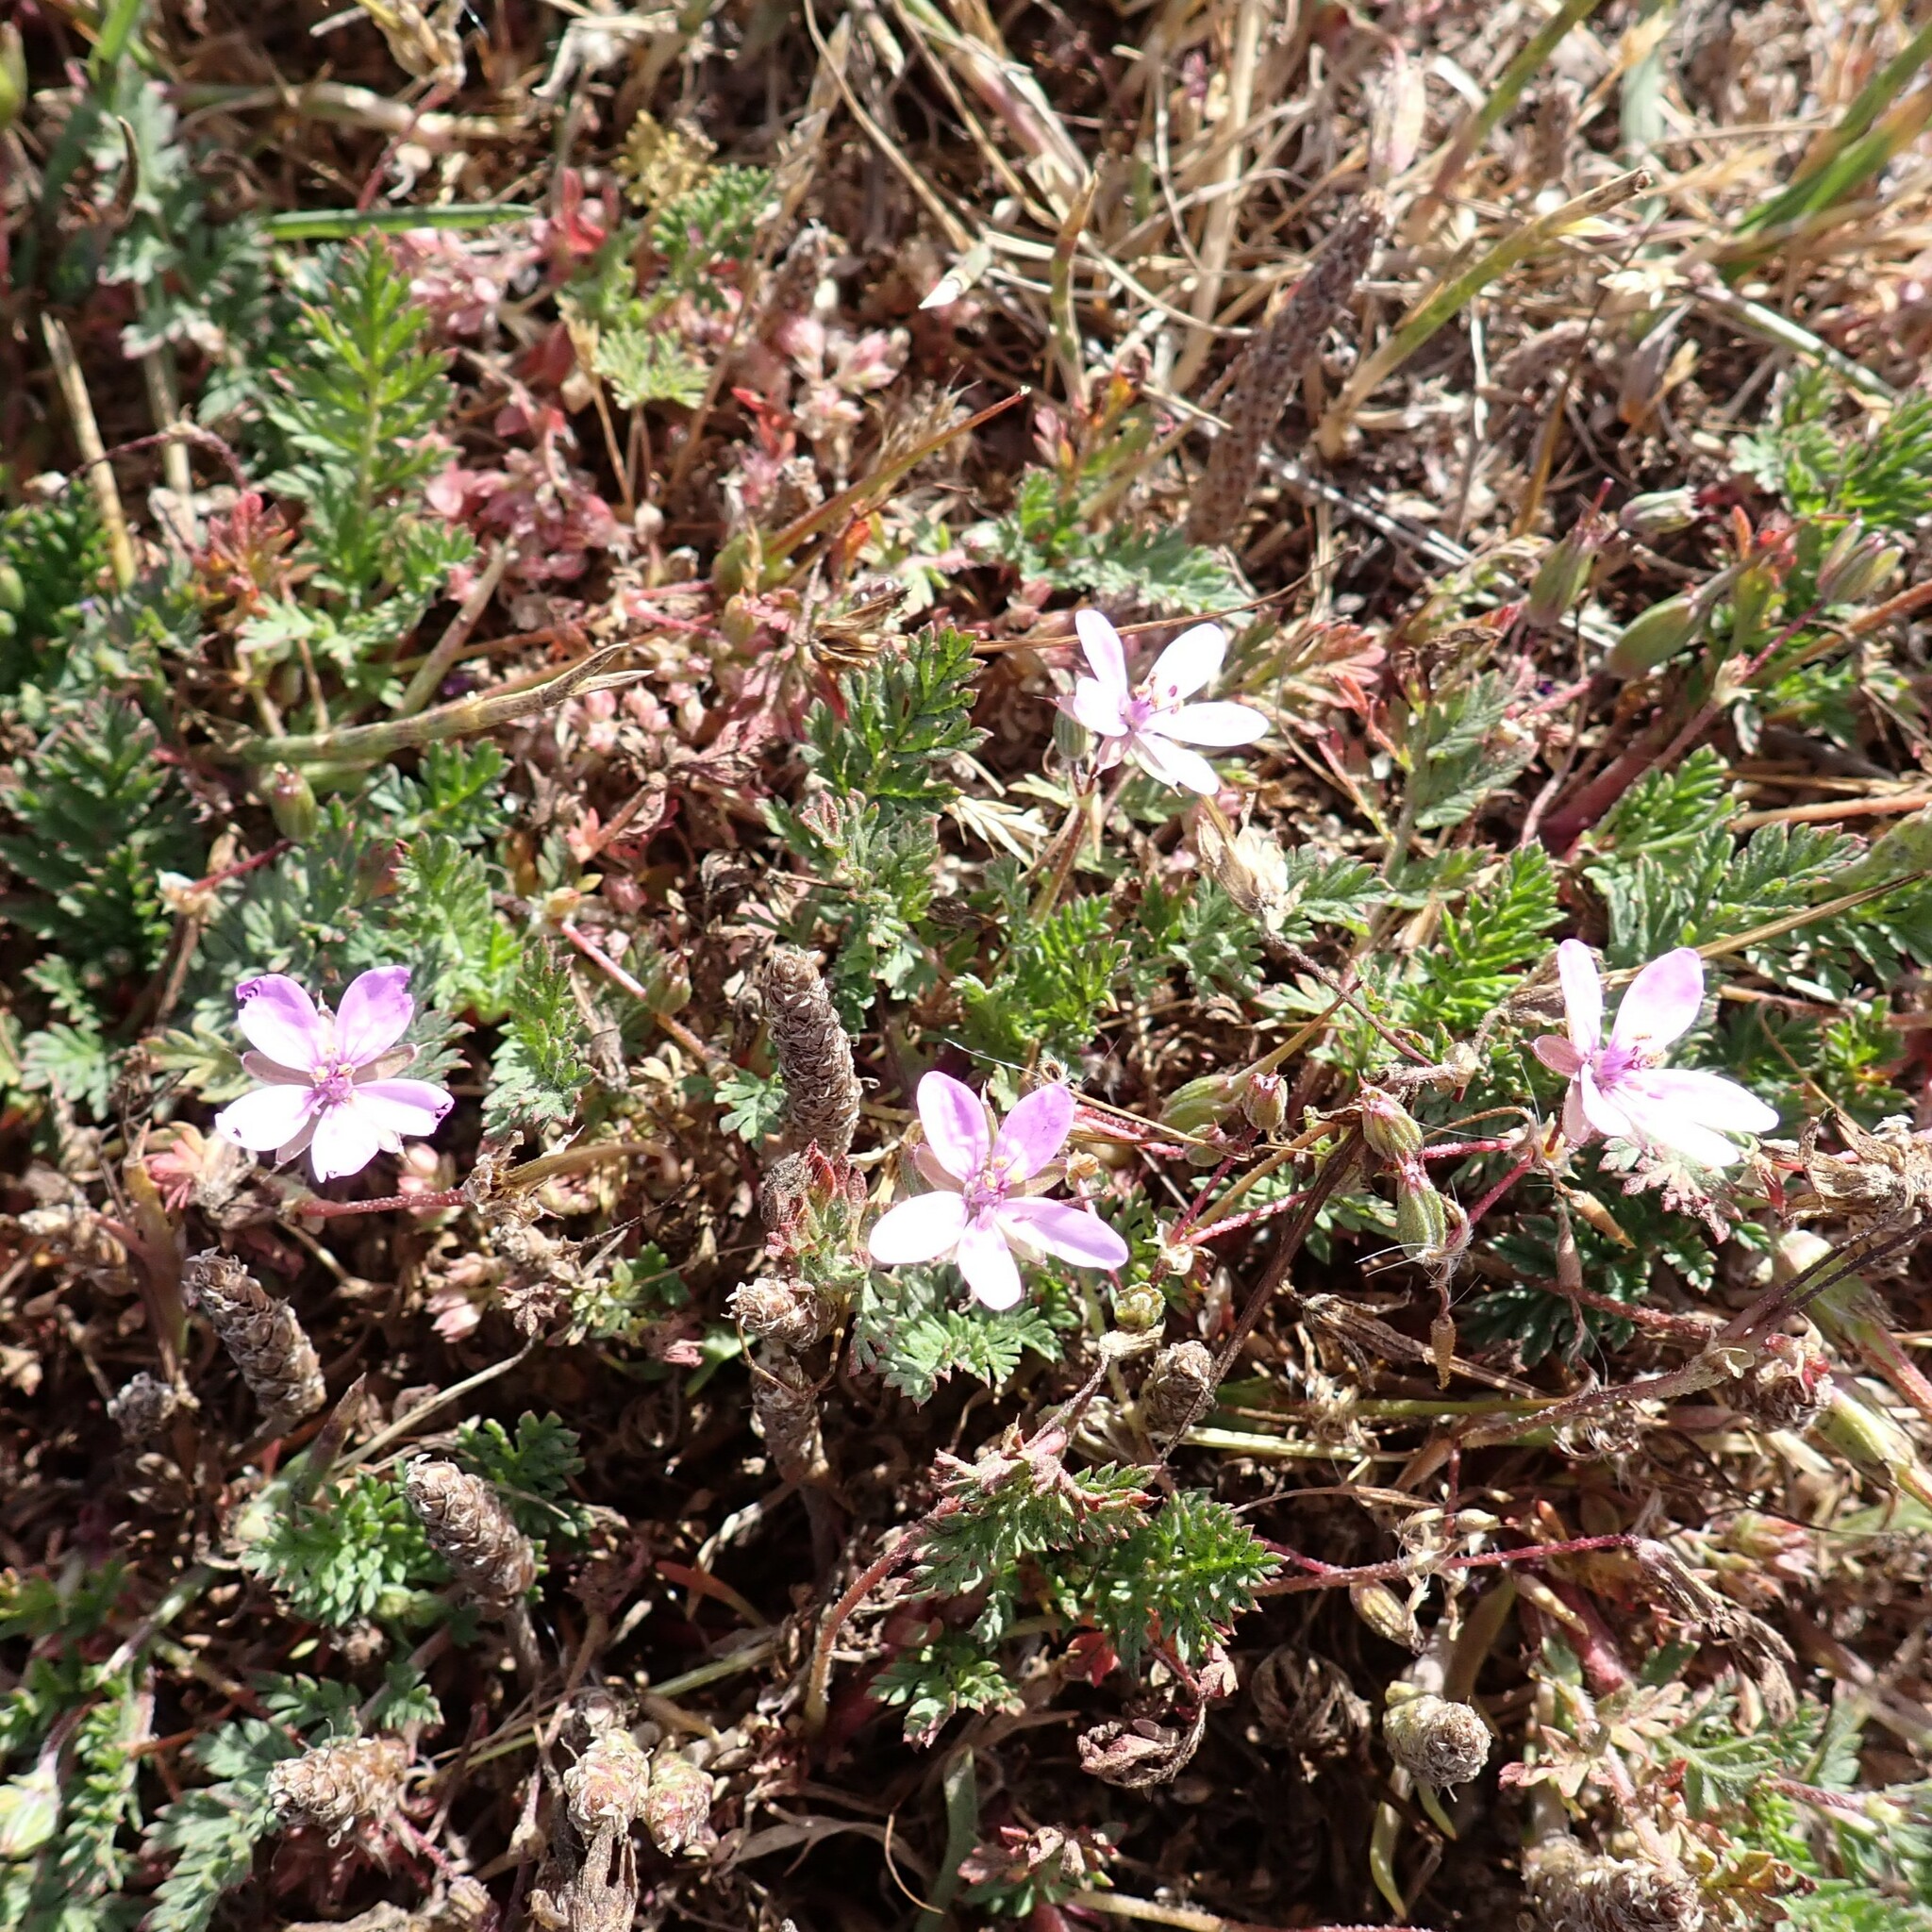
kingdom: Plantae
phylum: Tracheophyta
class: Magnoliopsida
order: Geraniales
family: Geraniaceae
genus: Erodium
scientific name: Erodium cicutarium
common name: Common stork's-bill
